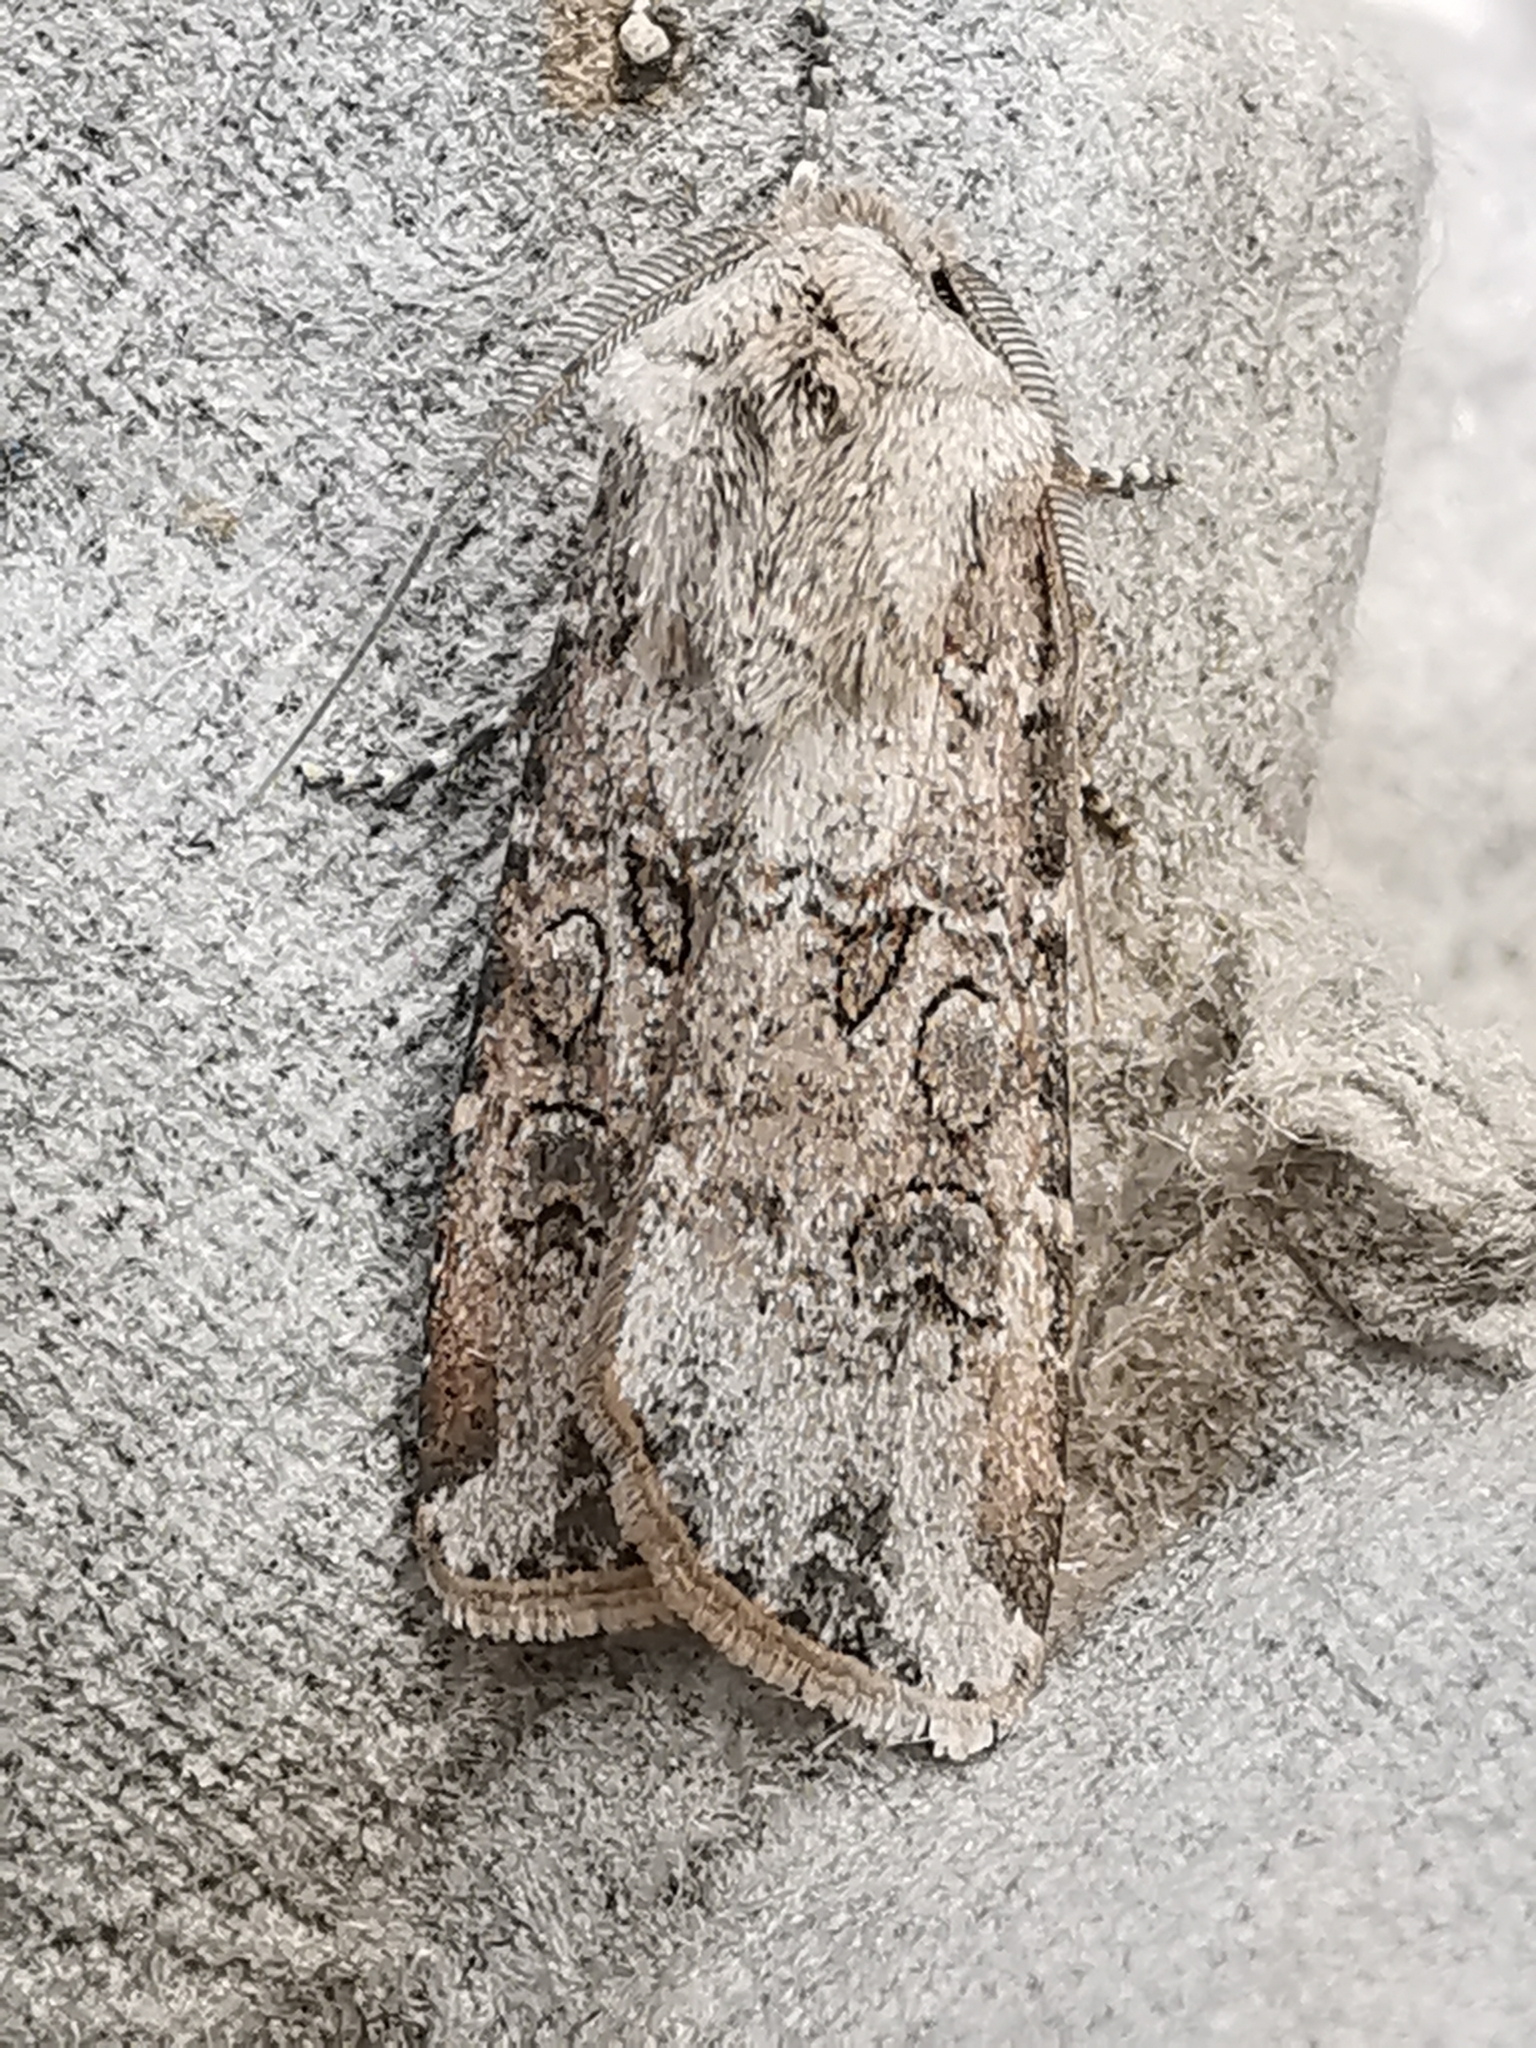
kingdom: Animalia
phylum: Arthropoda
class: Insecta
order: Lepidoptera
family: Noctuidae
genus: Agrotis
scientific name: Agrotis segetum
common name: Turnip moth
